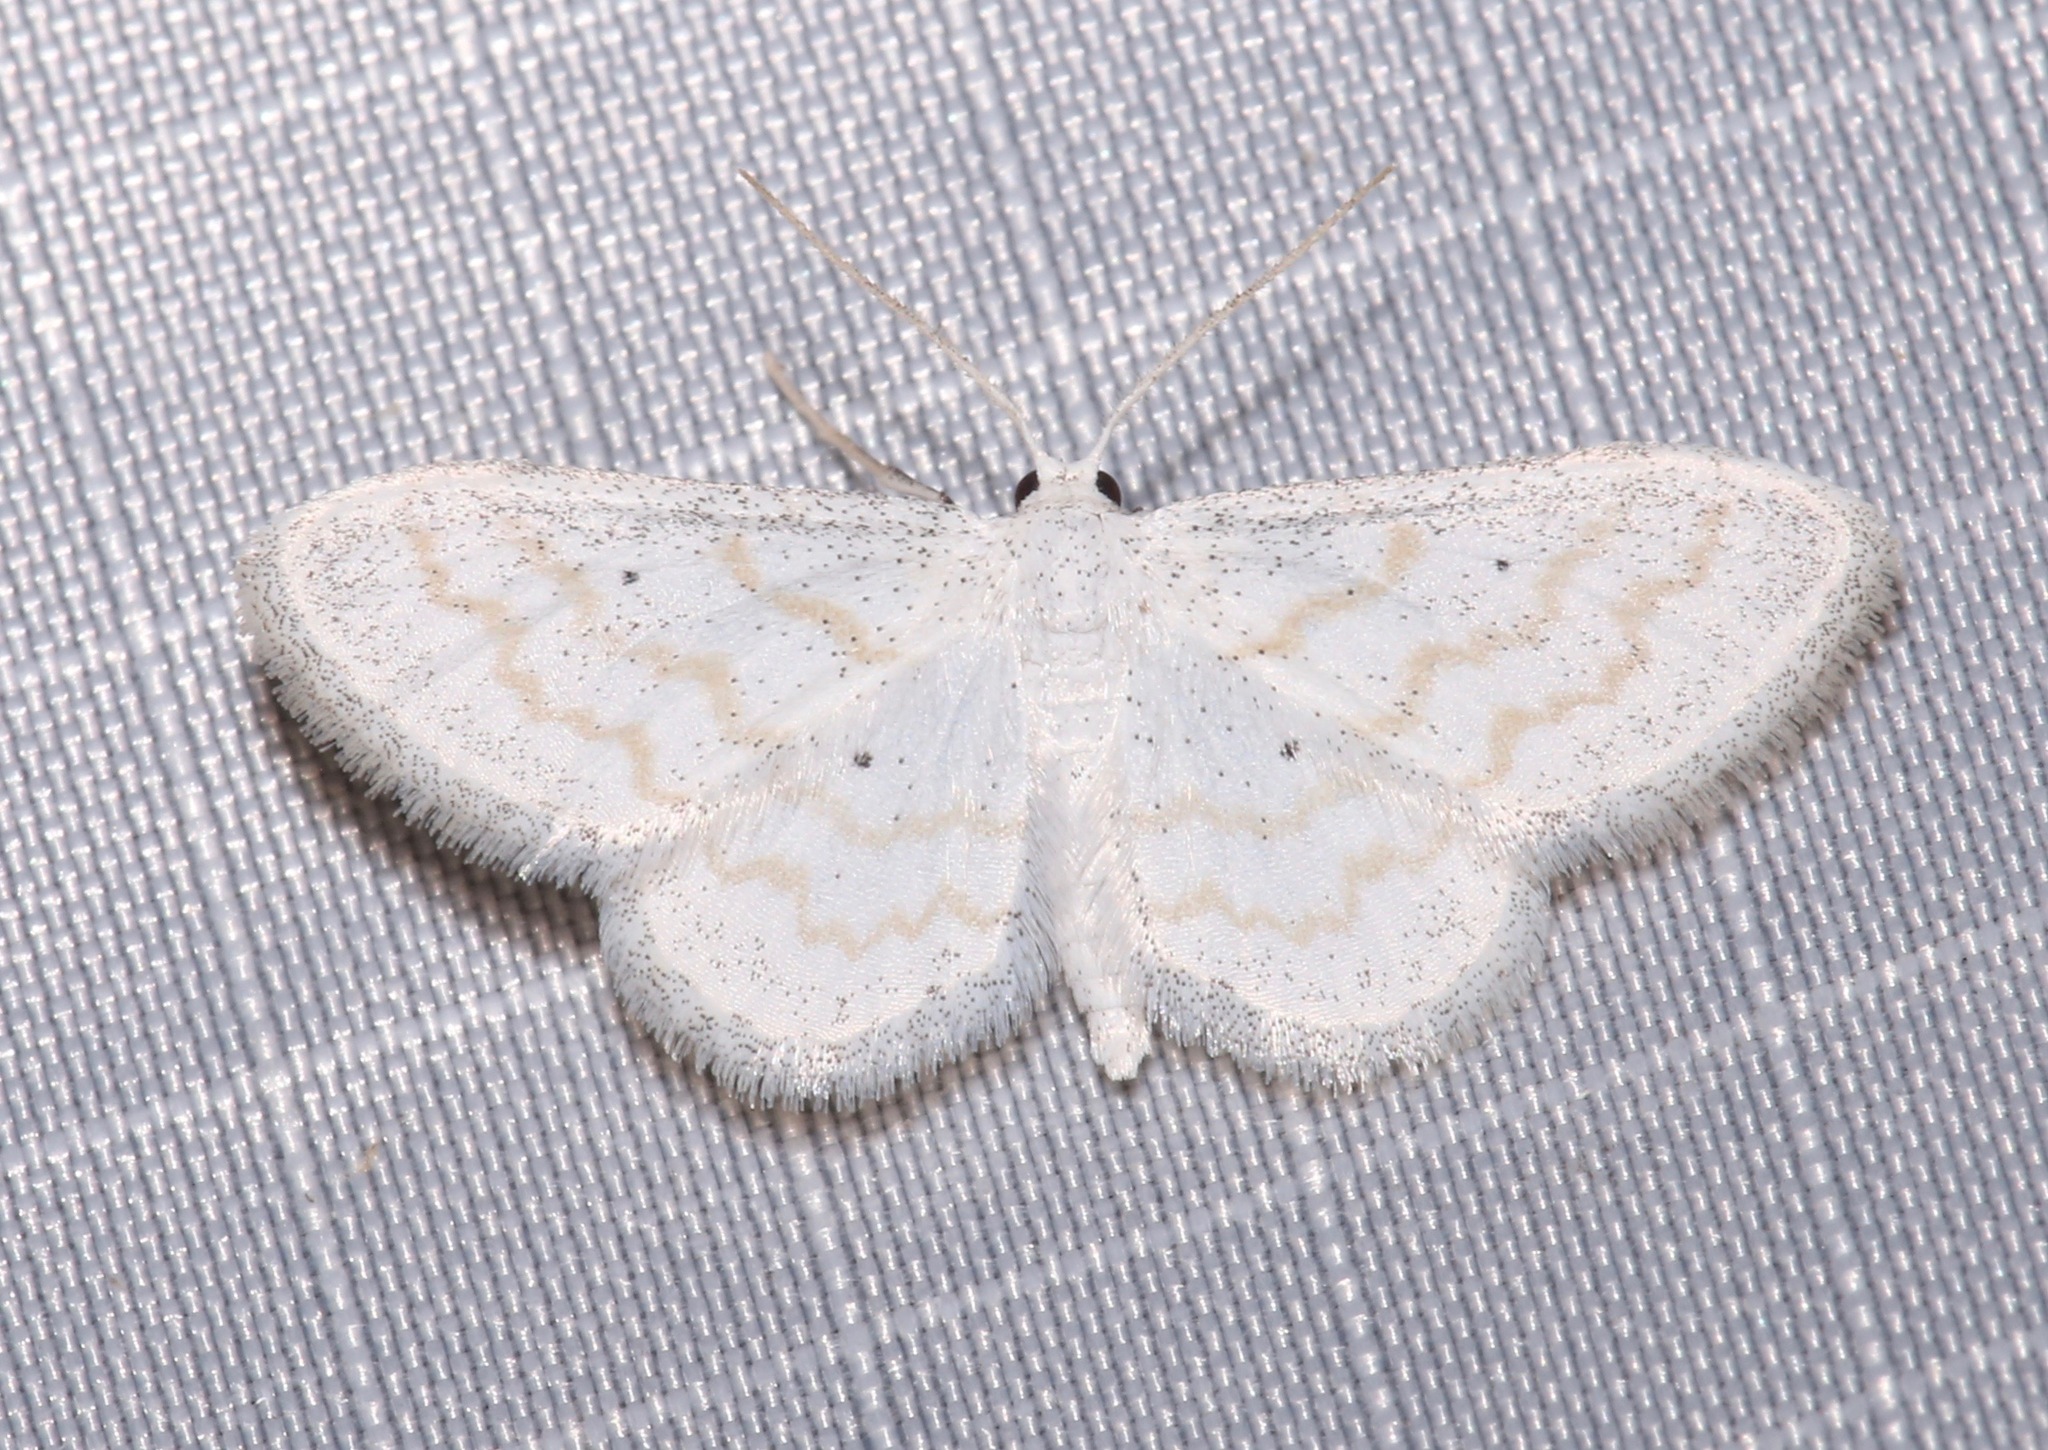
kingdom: Animalia
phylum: Arthropoda
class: Insecta
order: Lepidoptera
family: Geometridae
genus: Lobocleta
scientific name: Lobocleta peralbata
